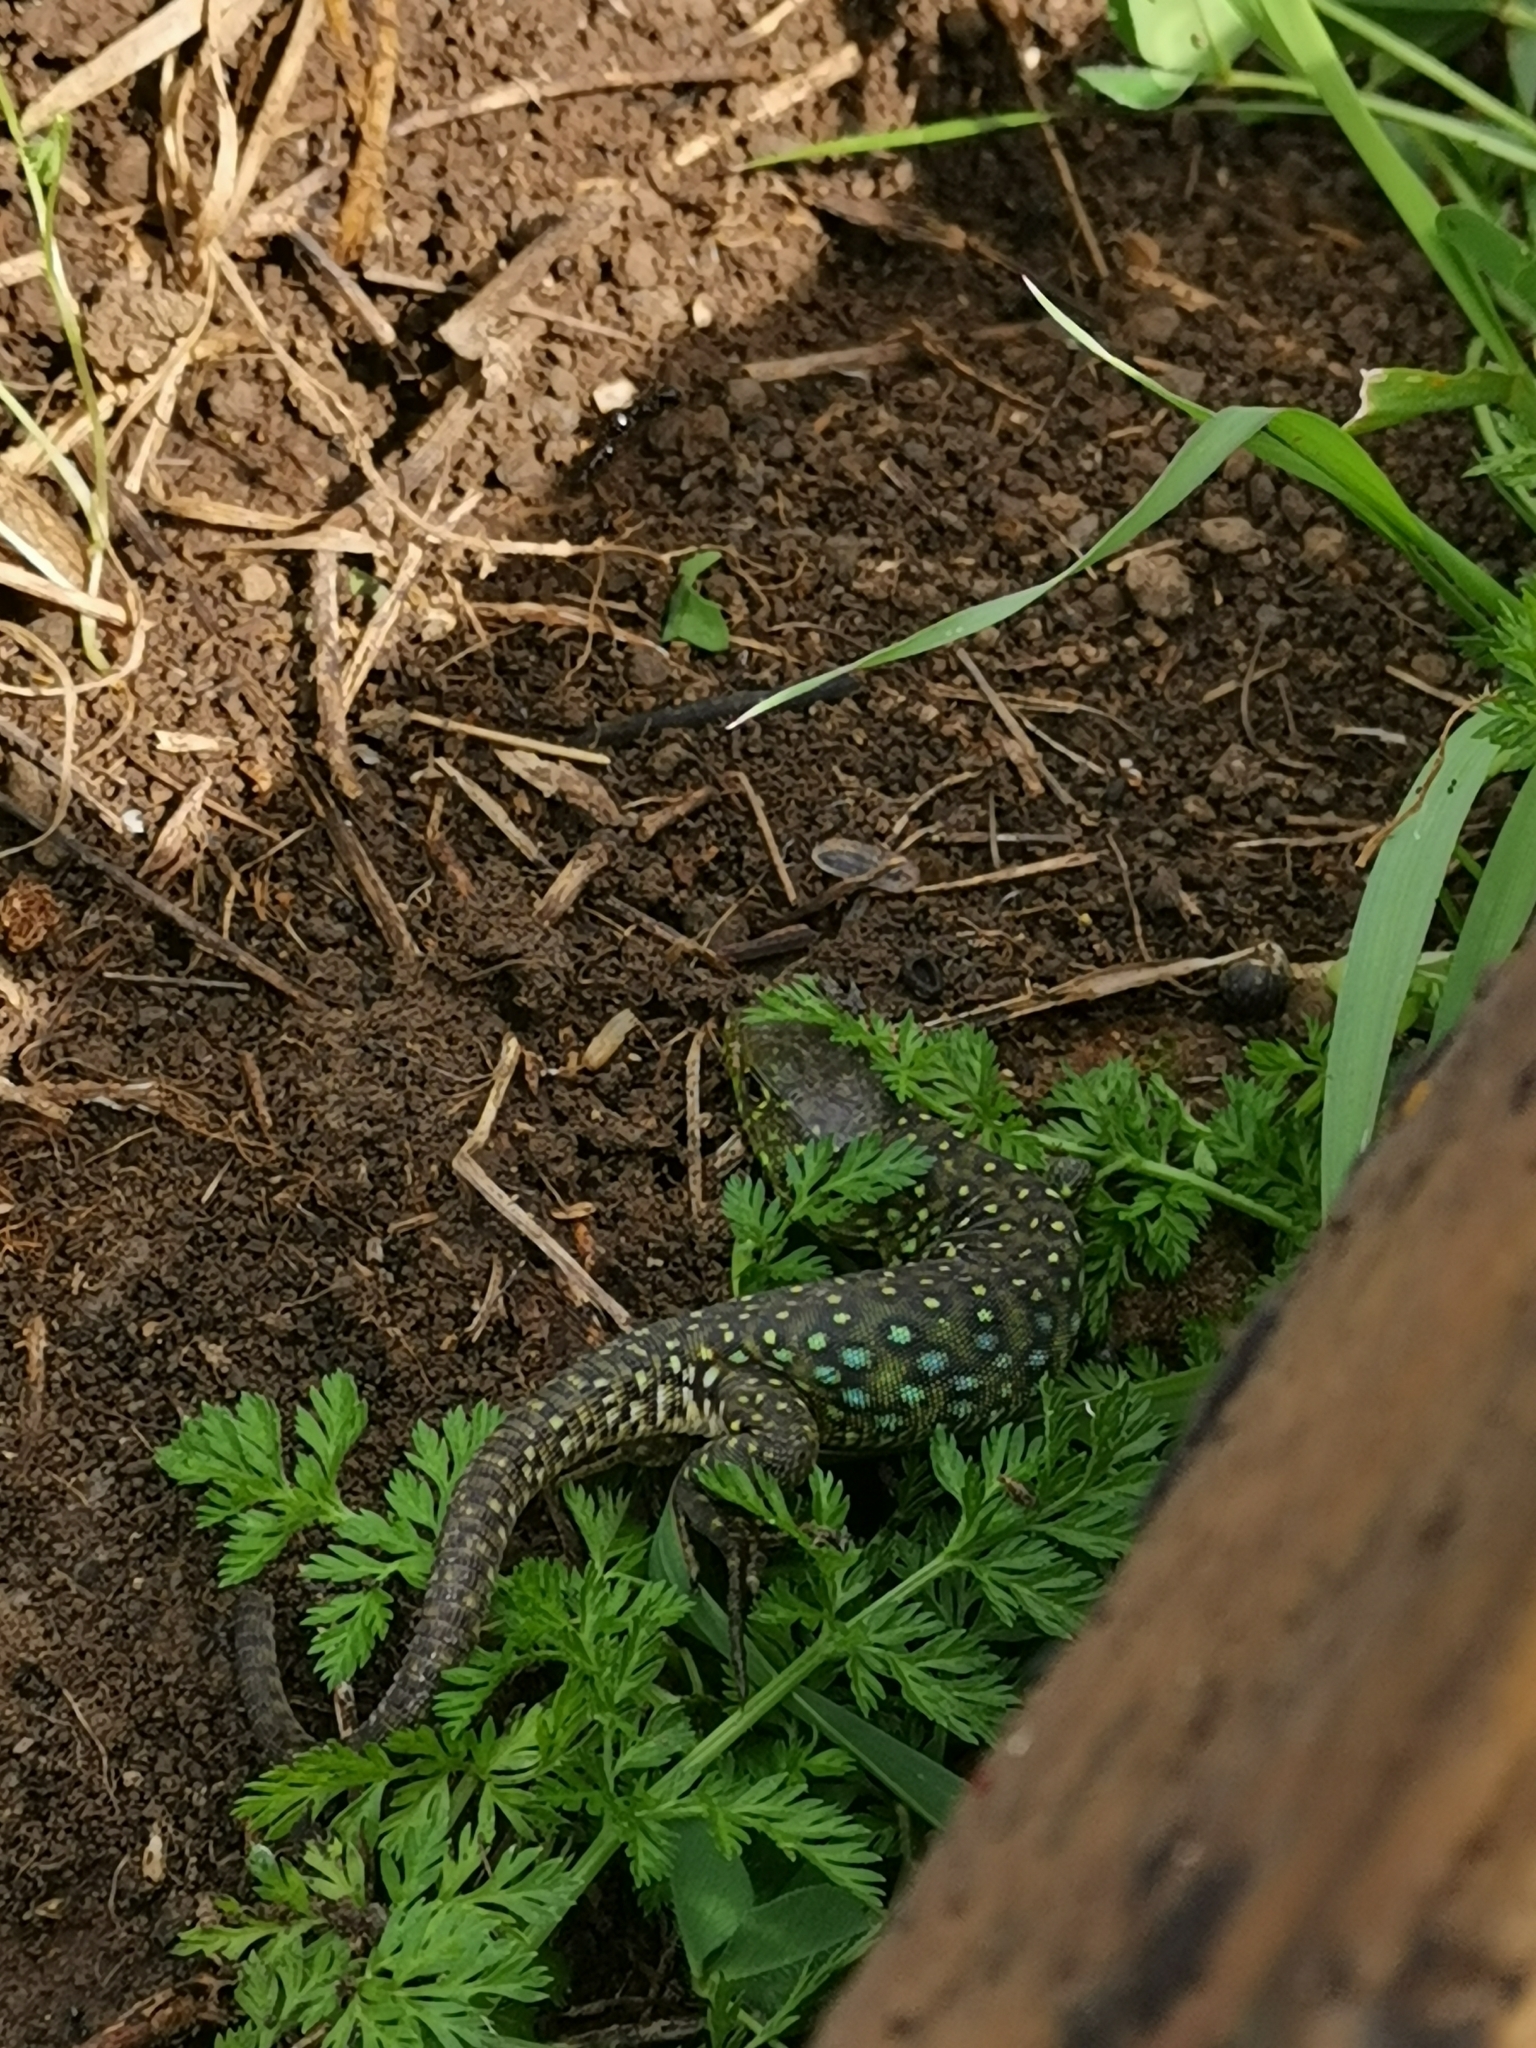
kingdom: Animalia
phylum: Chordata
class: Squamata
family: Lacertidae
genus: Timon
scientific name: Timon lepidus
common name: Ocellated lizard
